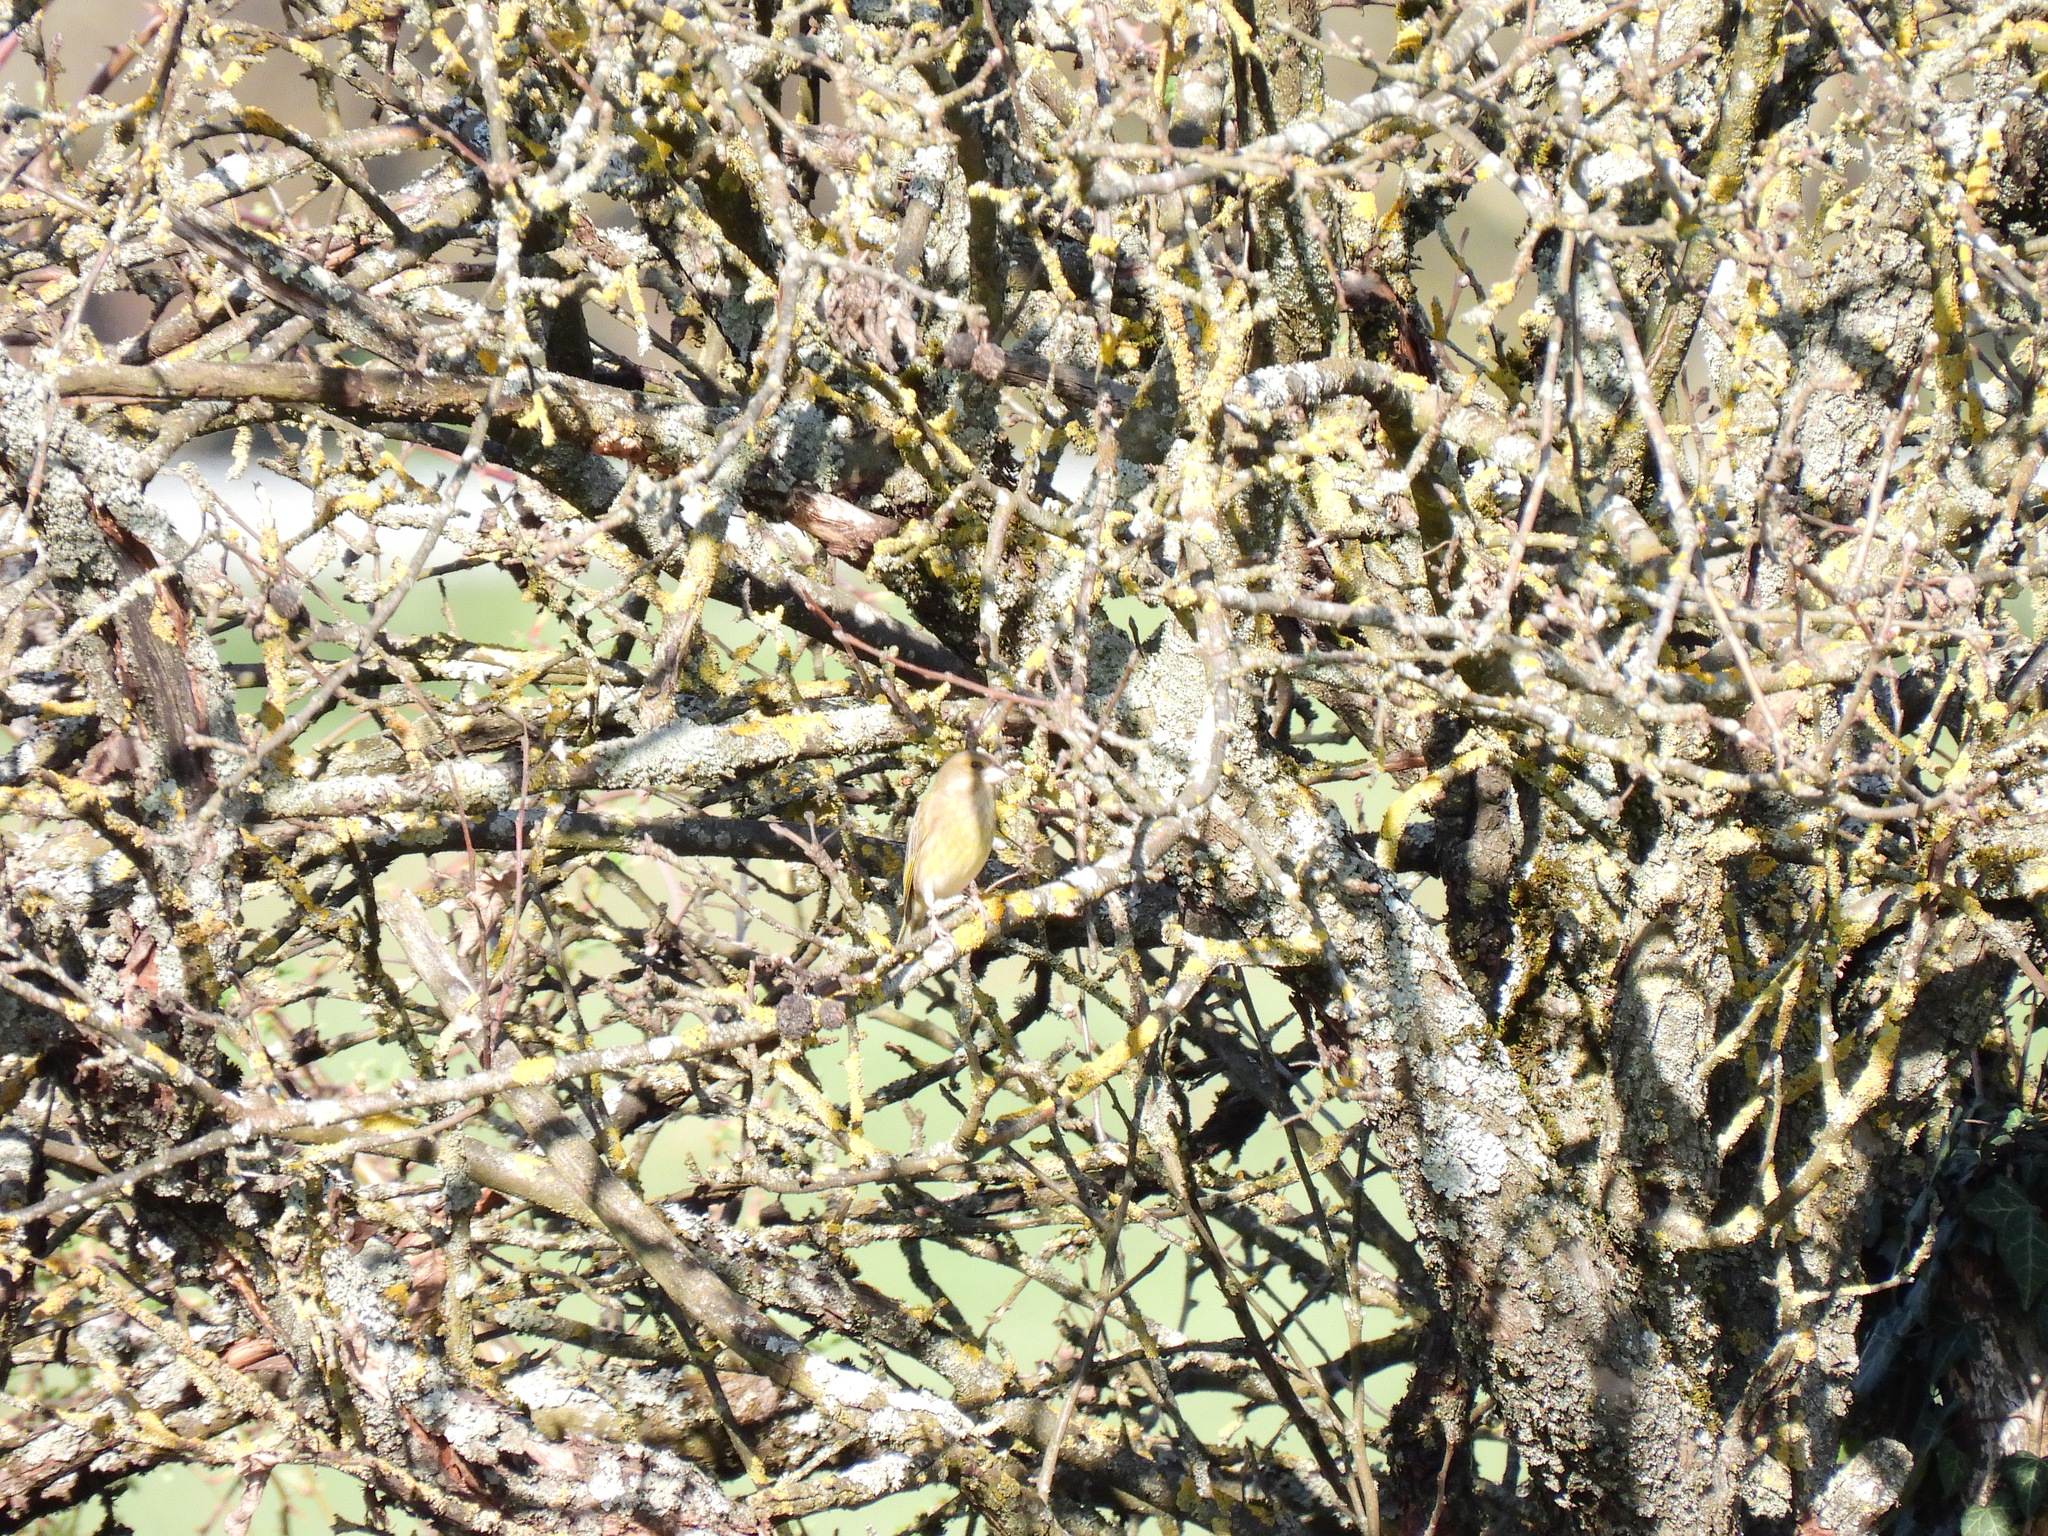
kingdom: Plantae
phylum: Tracheophyta
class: Liliopsida
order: Poales
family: Poaceae
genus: Chloris
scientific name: Chloris chloris
